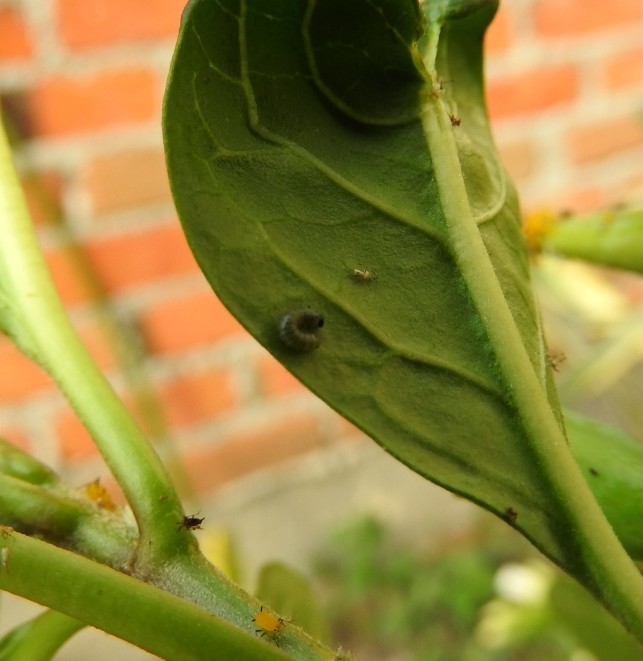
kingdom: Animalia
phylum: Arthropoda
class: Insecta
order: Lepidoptera
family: Nymphalidae
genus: Danaus
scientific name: Danaus plexippus
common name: Monarch
